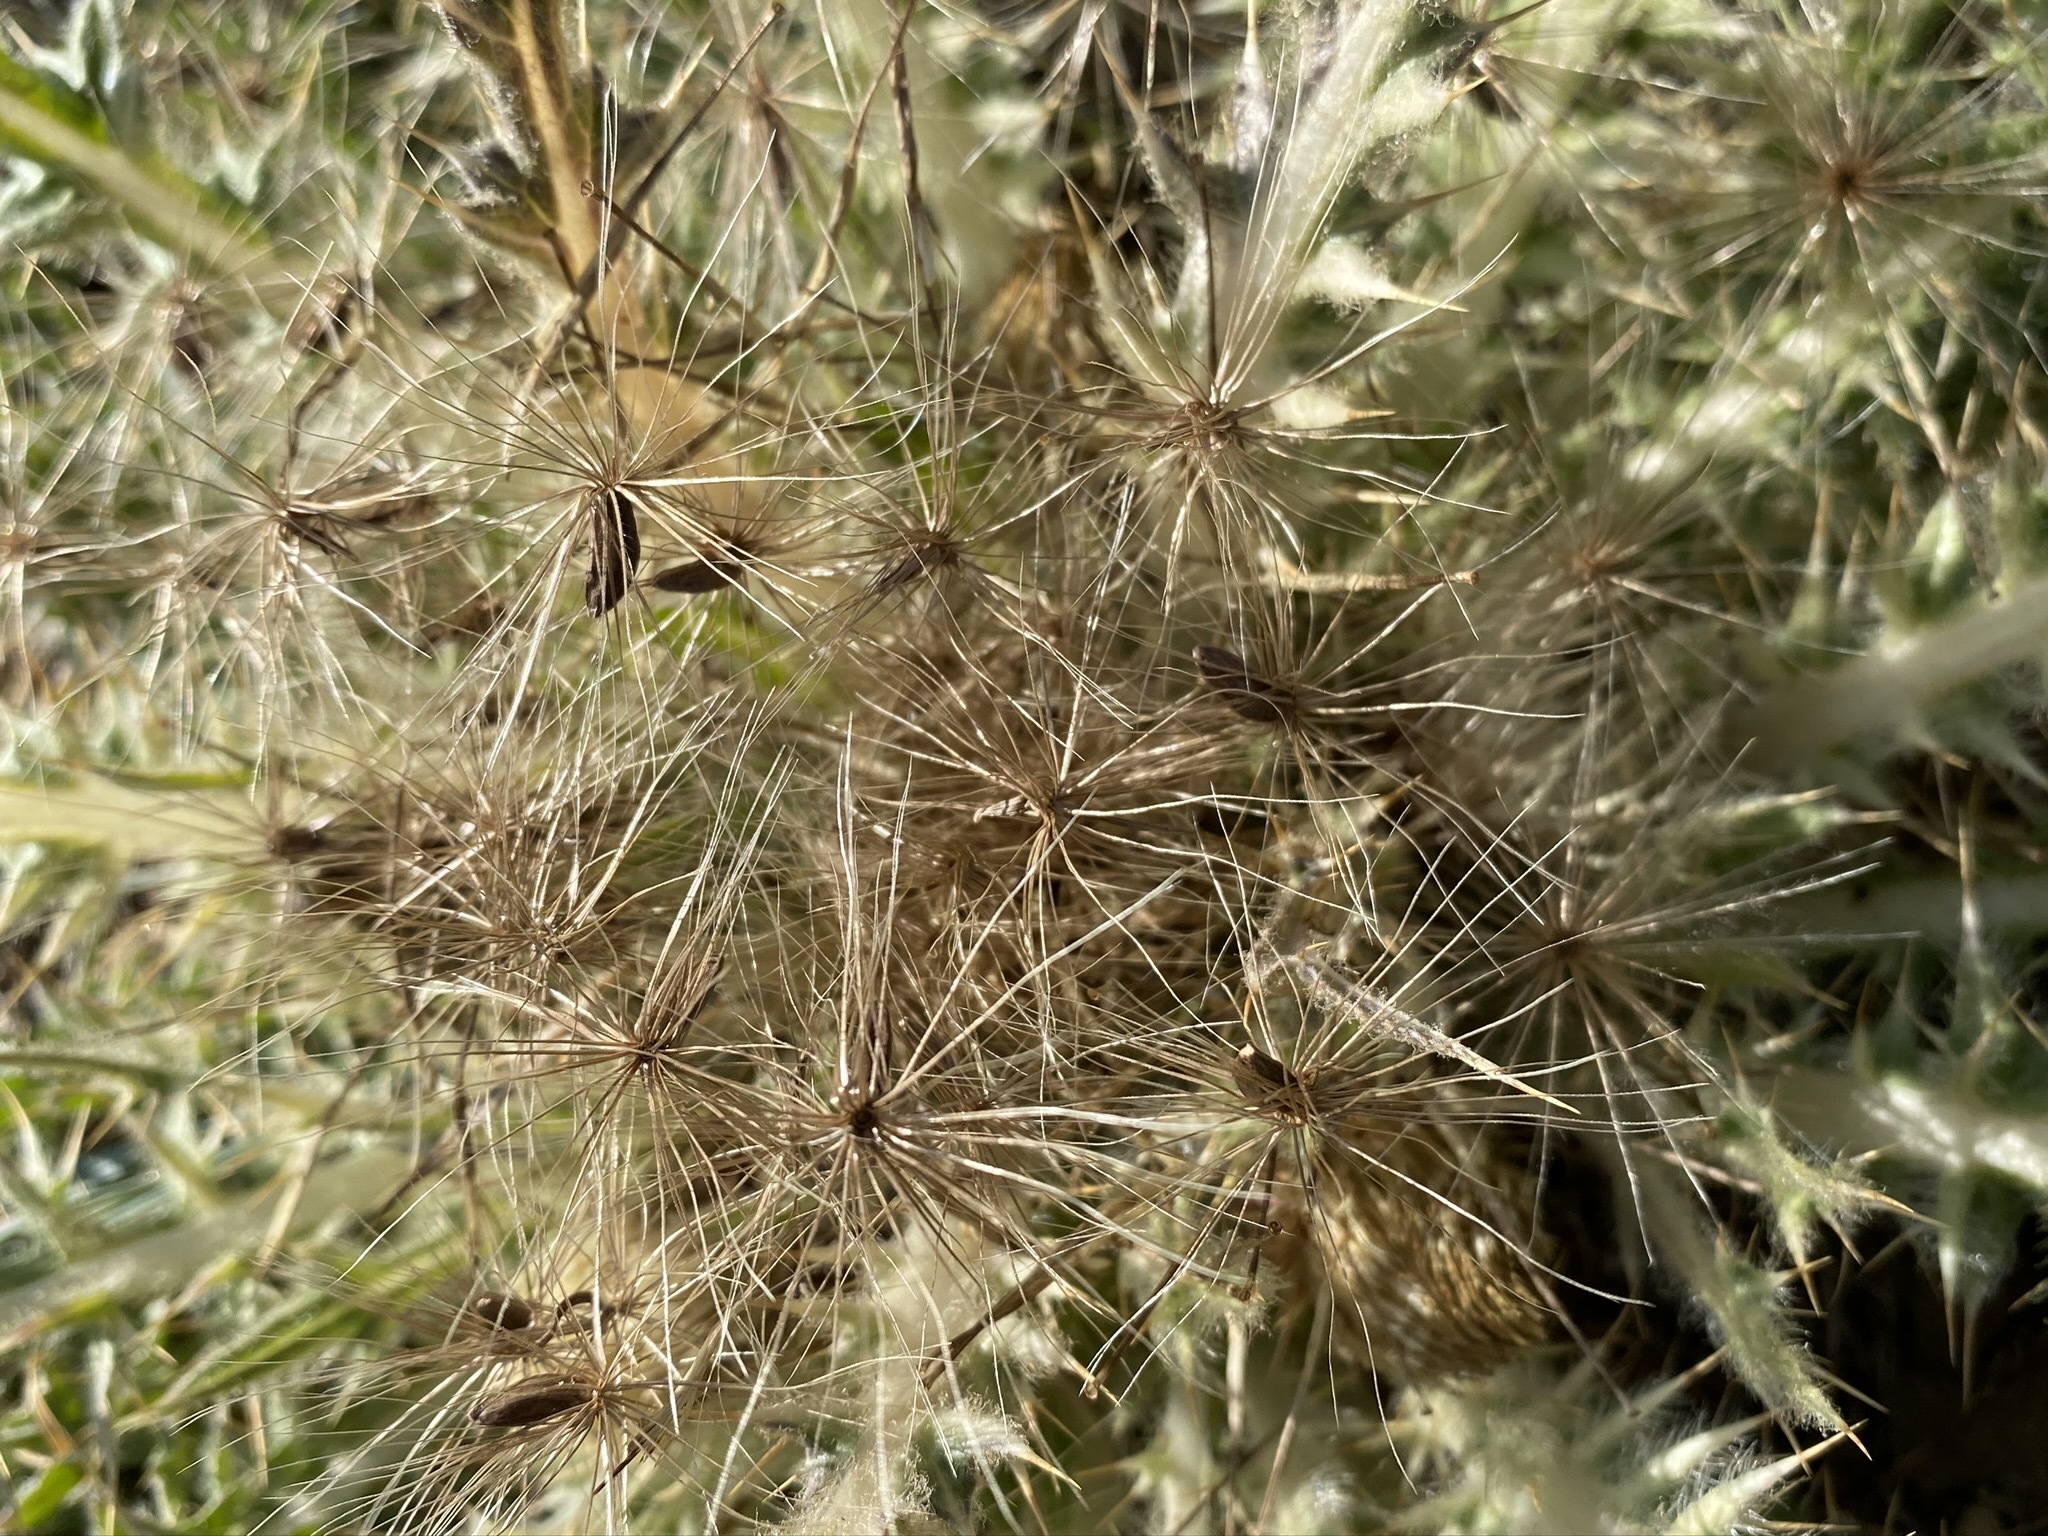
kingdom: Plantae
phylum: Tracheophyta
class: Magnoliopsida
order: Asterales
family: Asteraceae
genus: Cirsium
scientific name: Cirsium tioganum
